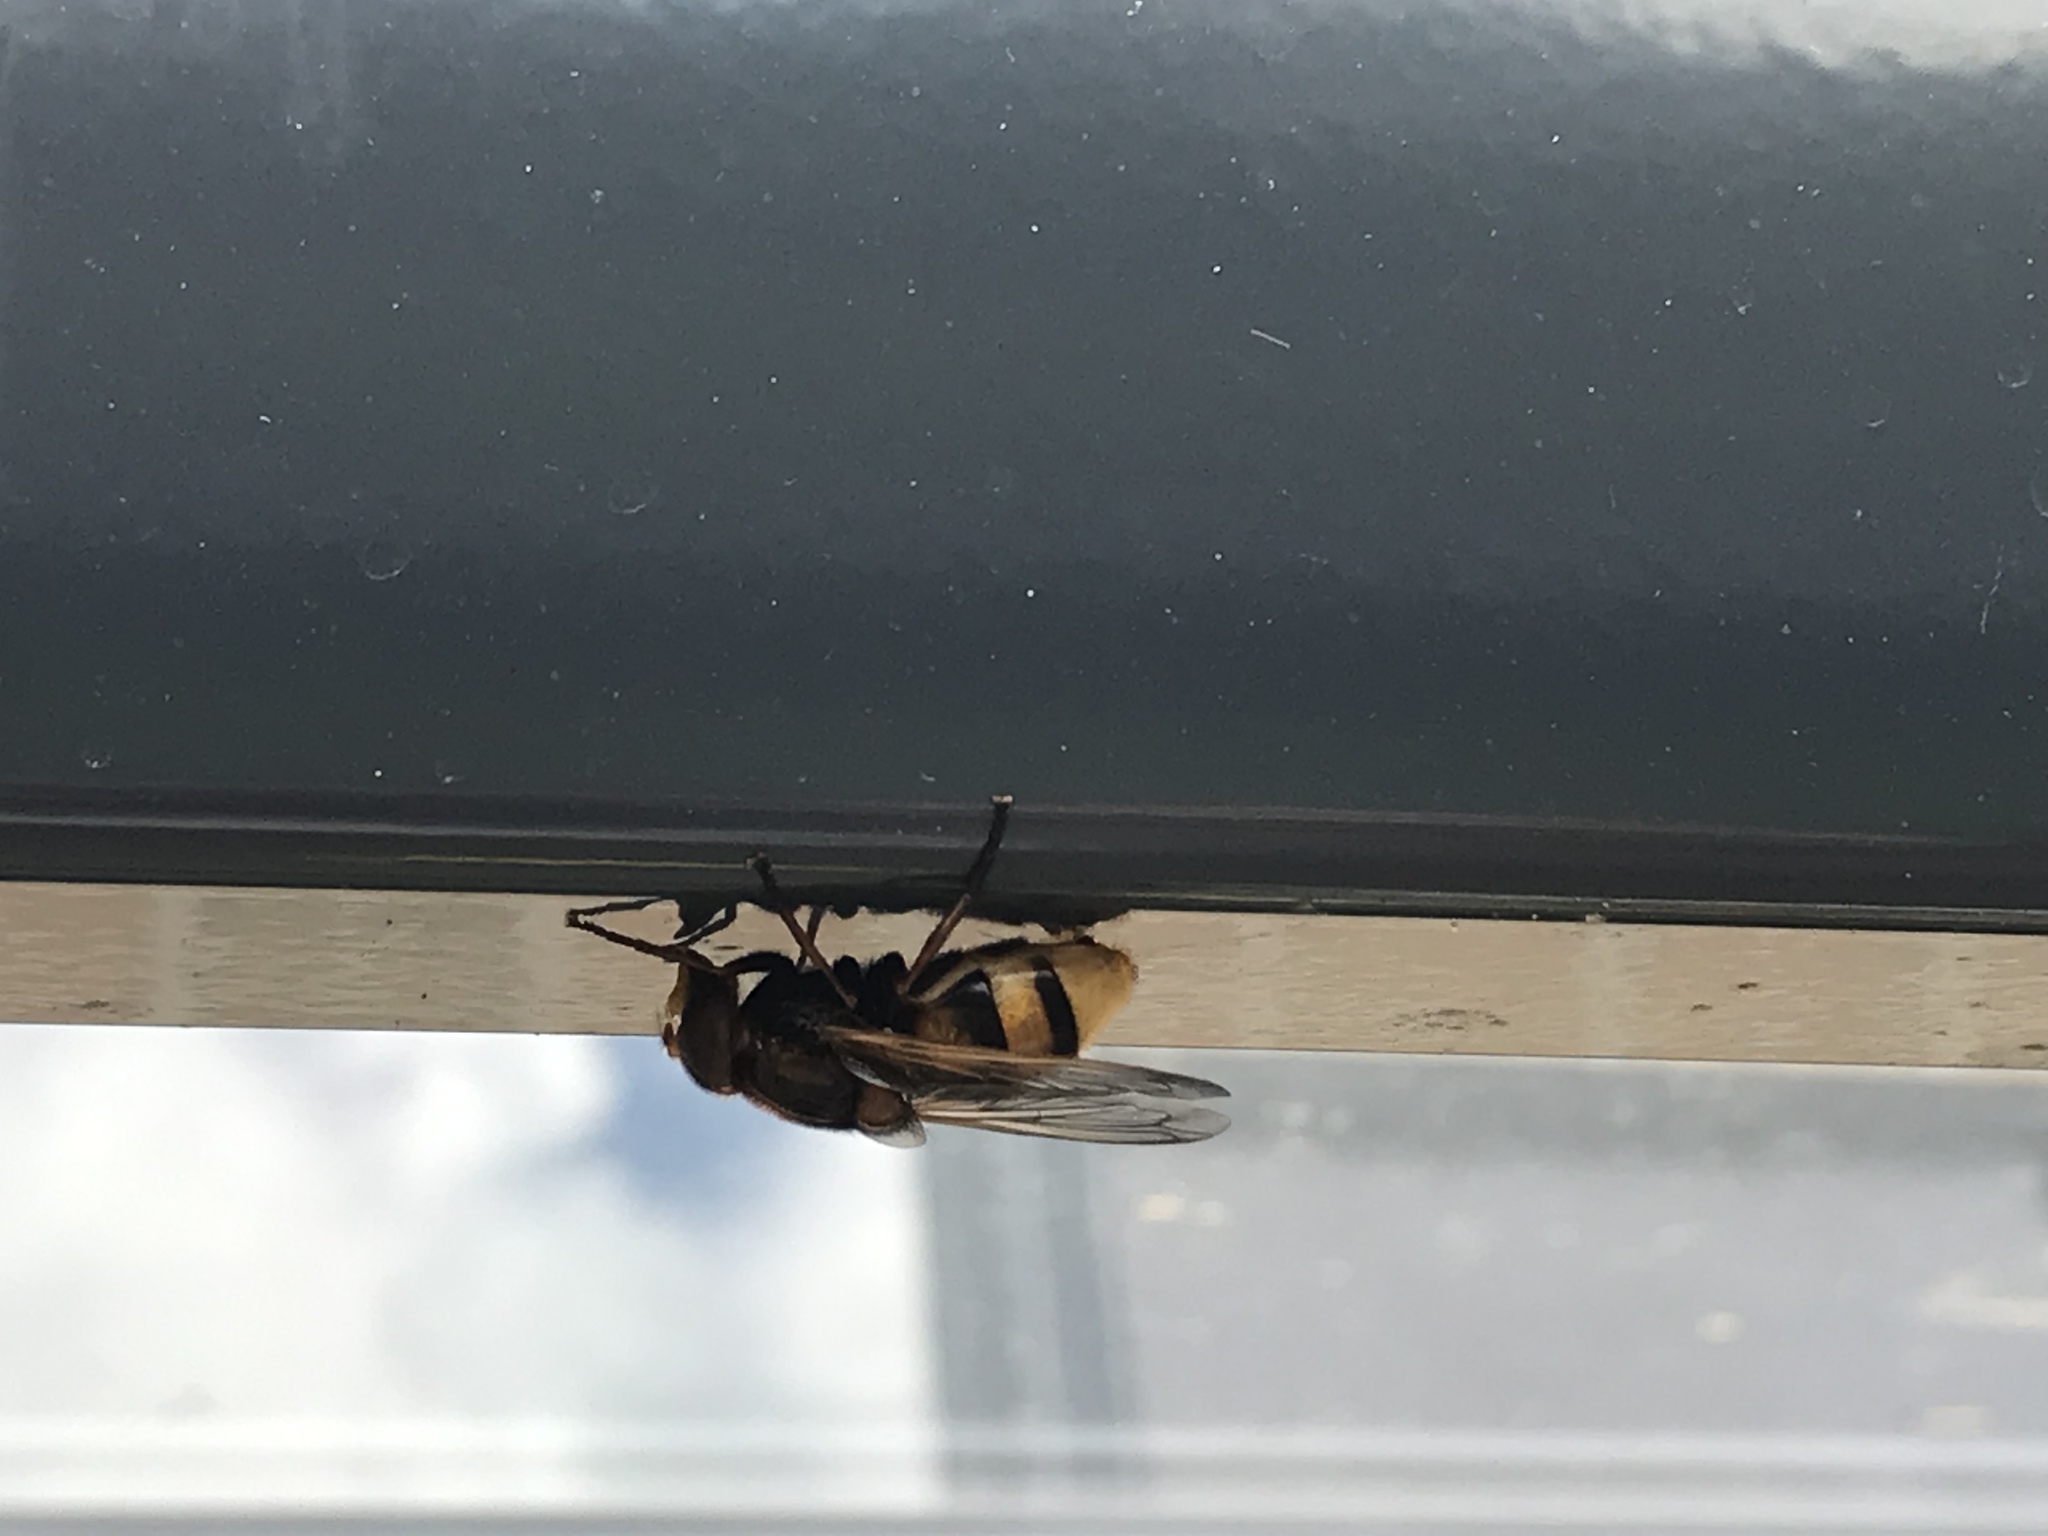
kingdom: Animalia
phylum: Arthropoda
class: Insecta
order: Diptera
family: Syrphidae
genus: Volucella
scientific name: Volucella zonaria
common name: Hornet hoverfly
